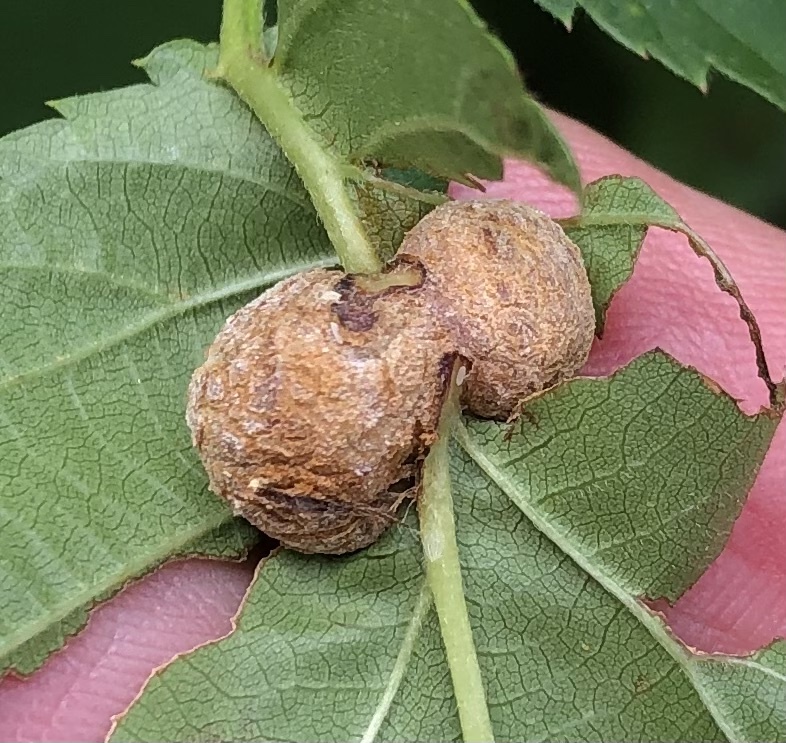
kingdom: Animalia
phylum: Arthropoda
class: Insecta
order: Diptera
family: Cecidomyiidae
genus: Neolasioptera
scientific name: Neolasioptera farinosa
